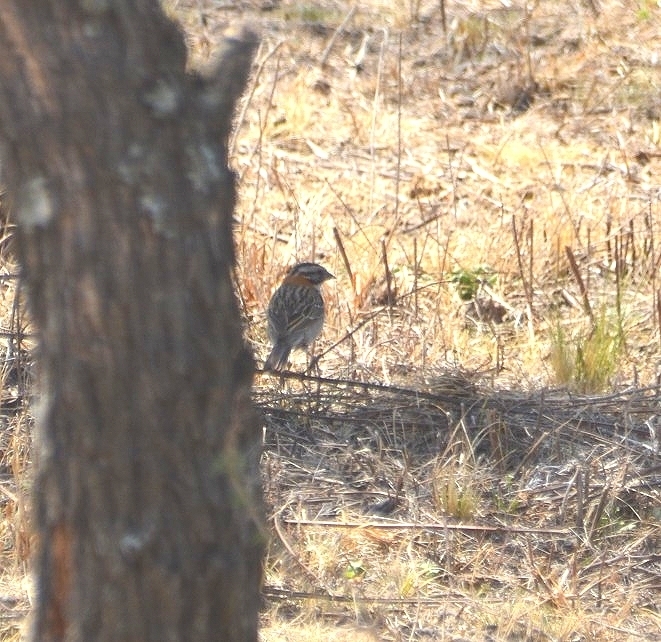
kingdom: Animalia
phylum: Chordata
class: Aves
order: Passeriformes
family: Passerellidae
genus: Zonotrichia
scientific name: Zonotrichia capensis
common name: Rufous-collared sparrow
